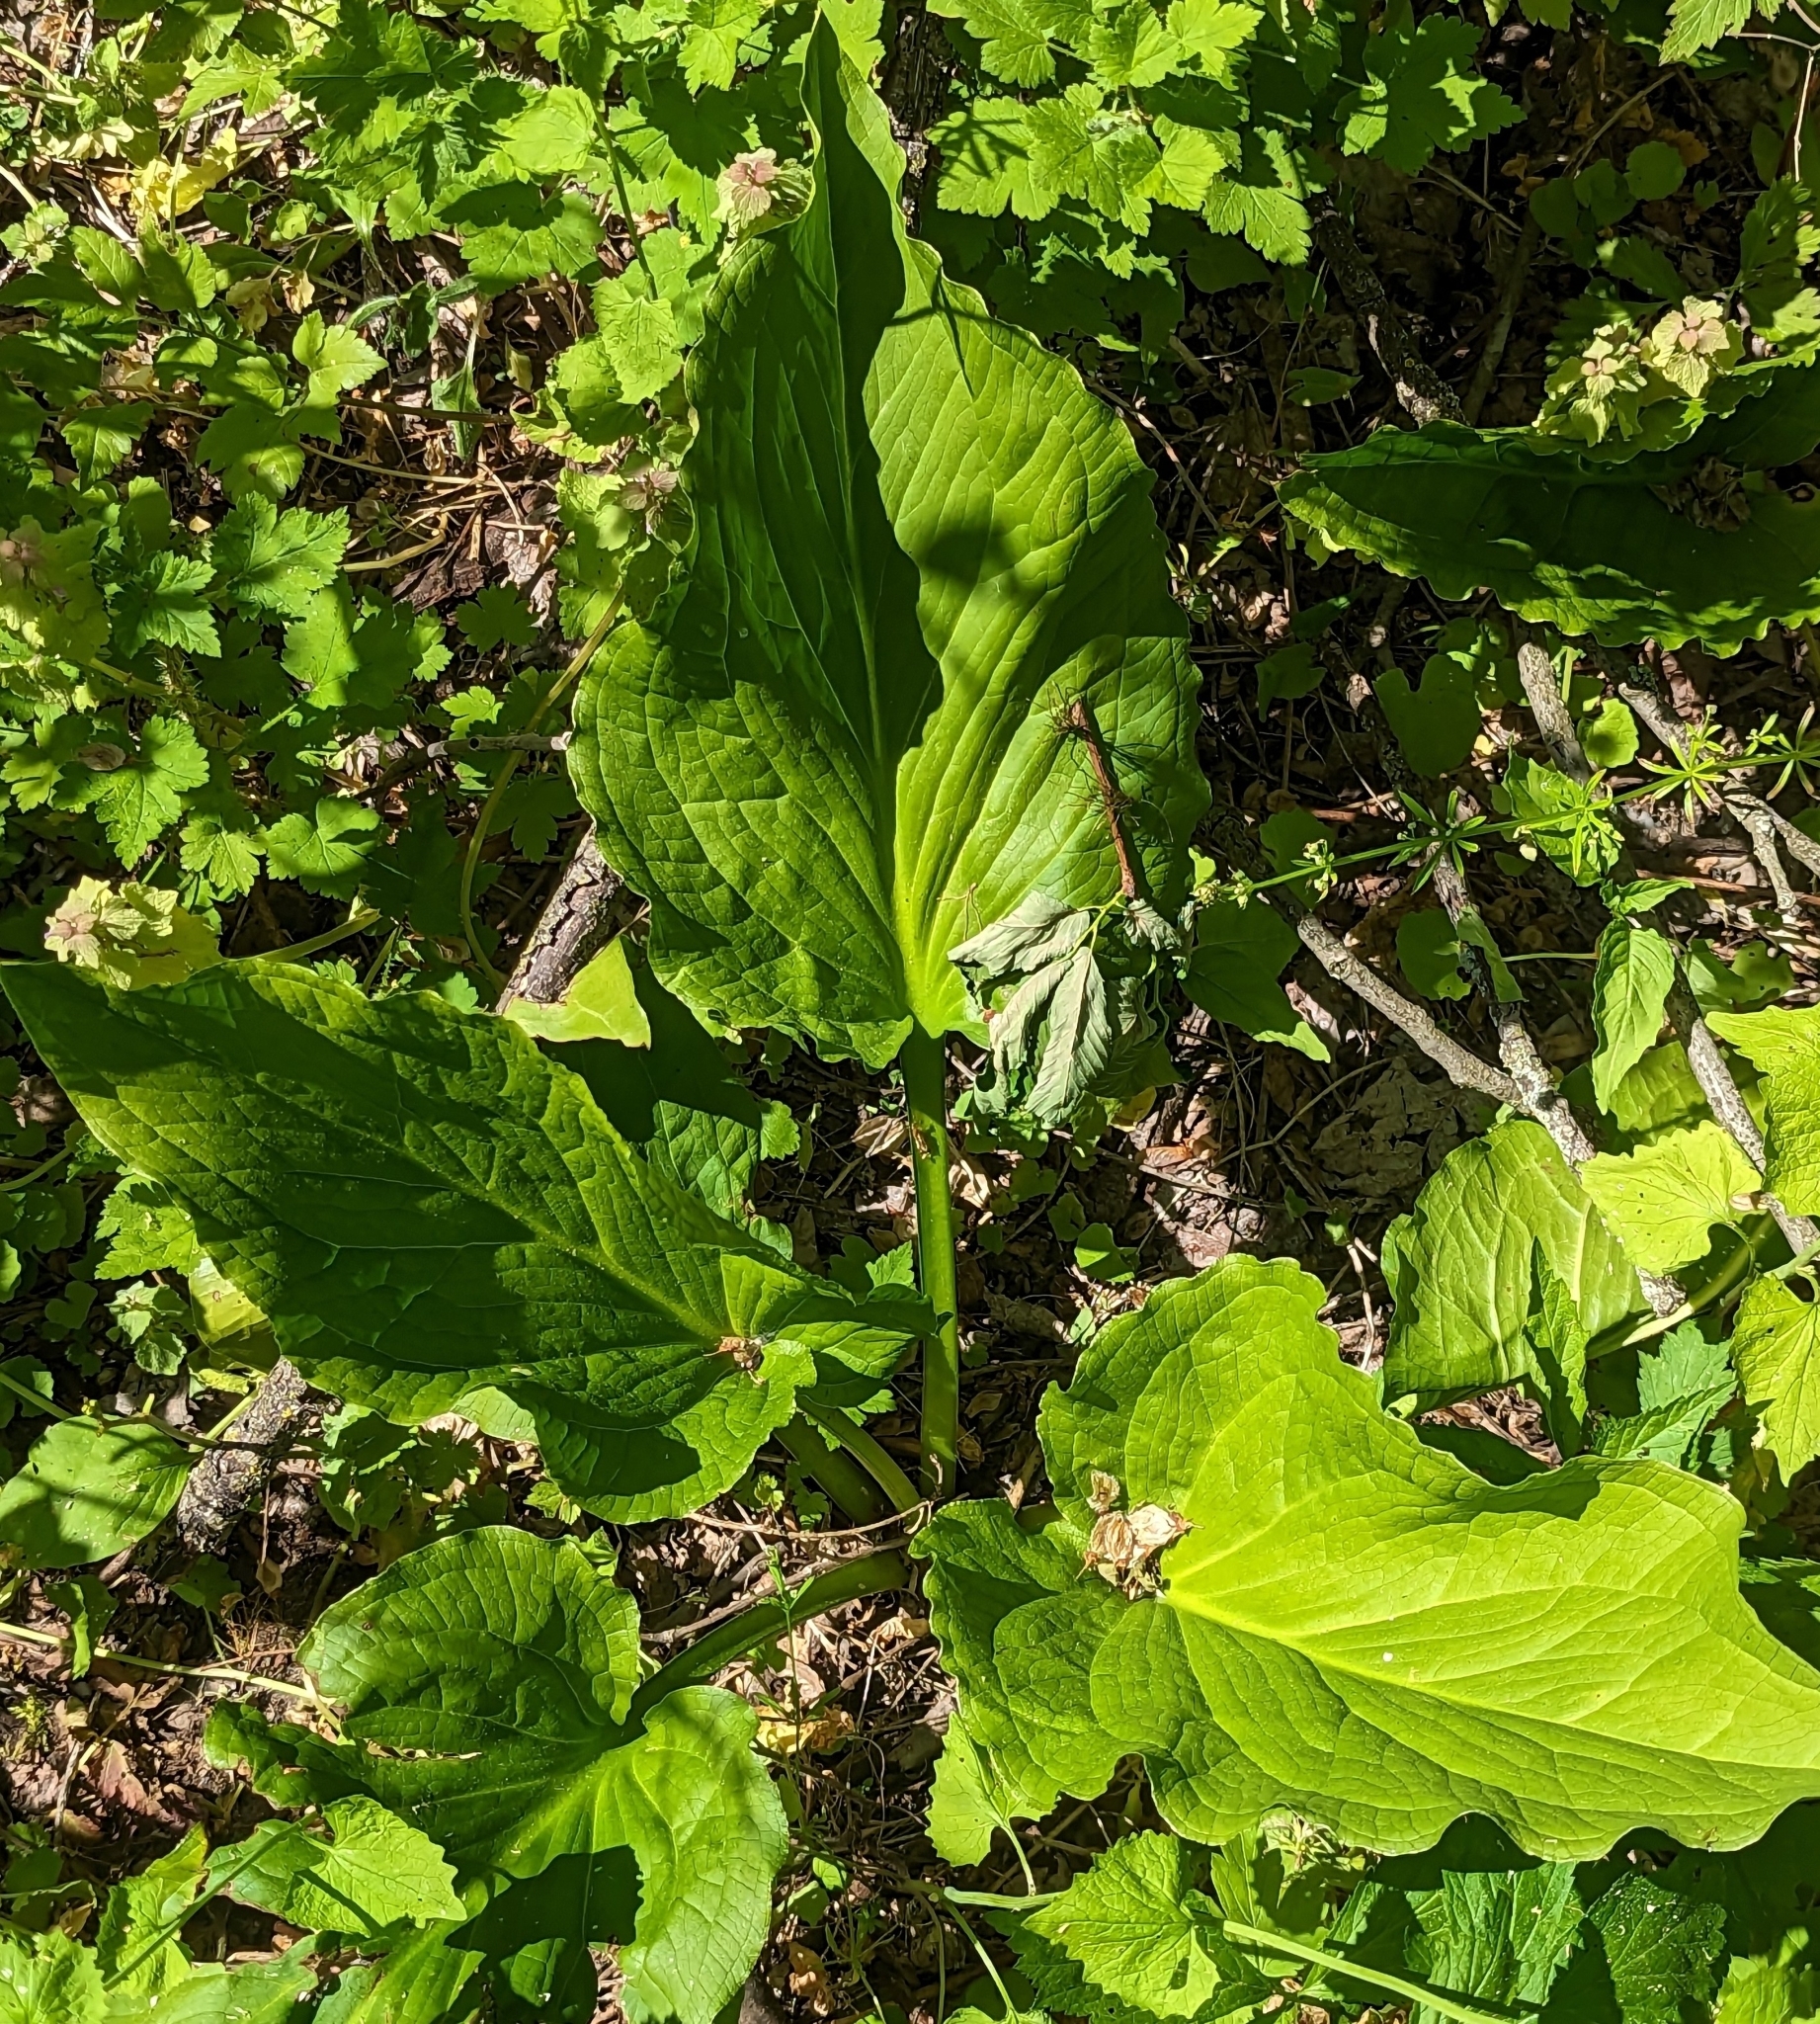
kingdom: Plantae
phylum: Tracheophyta
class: Liliopsida
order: Alismatales
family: Araceae
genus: Symplocarpus
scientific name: Symplocarpus foetidus
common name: Eastern skunk cabbage
